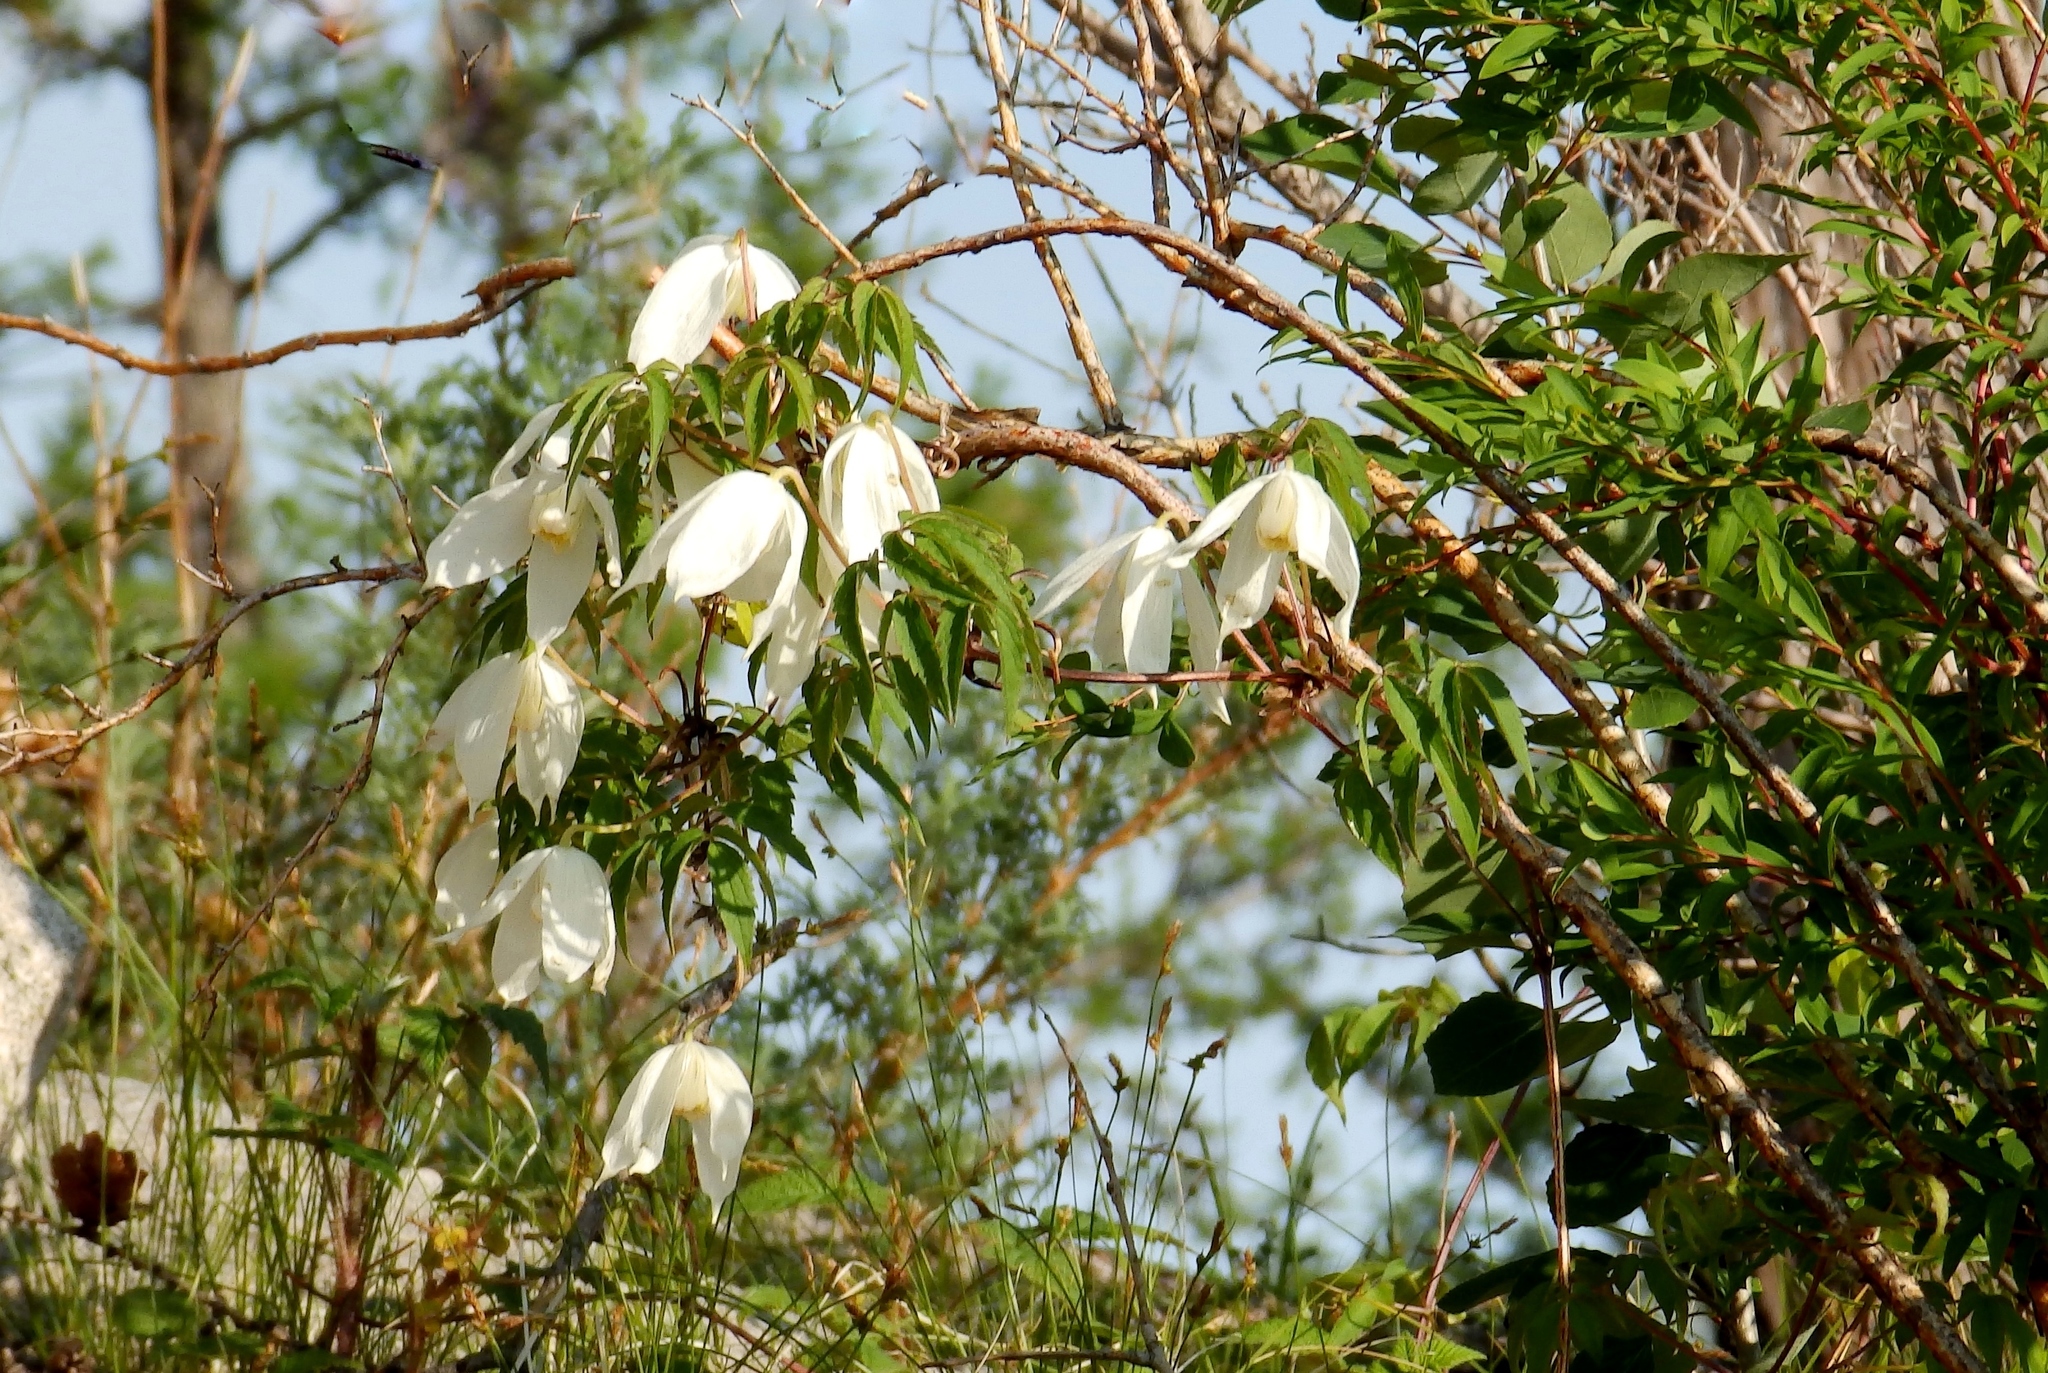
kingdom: Plantae
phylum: Tracheophyta
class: Magnoliopsida
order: Ranunculales
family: Ranunculaceae
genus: Clematis
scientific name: Clematis sibirica
